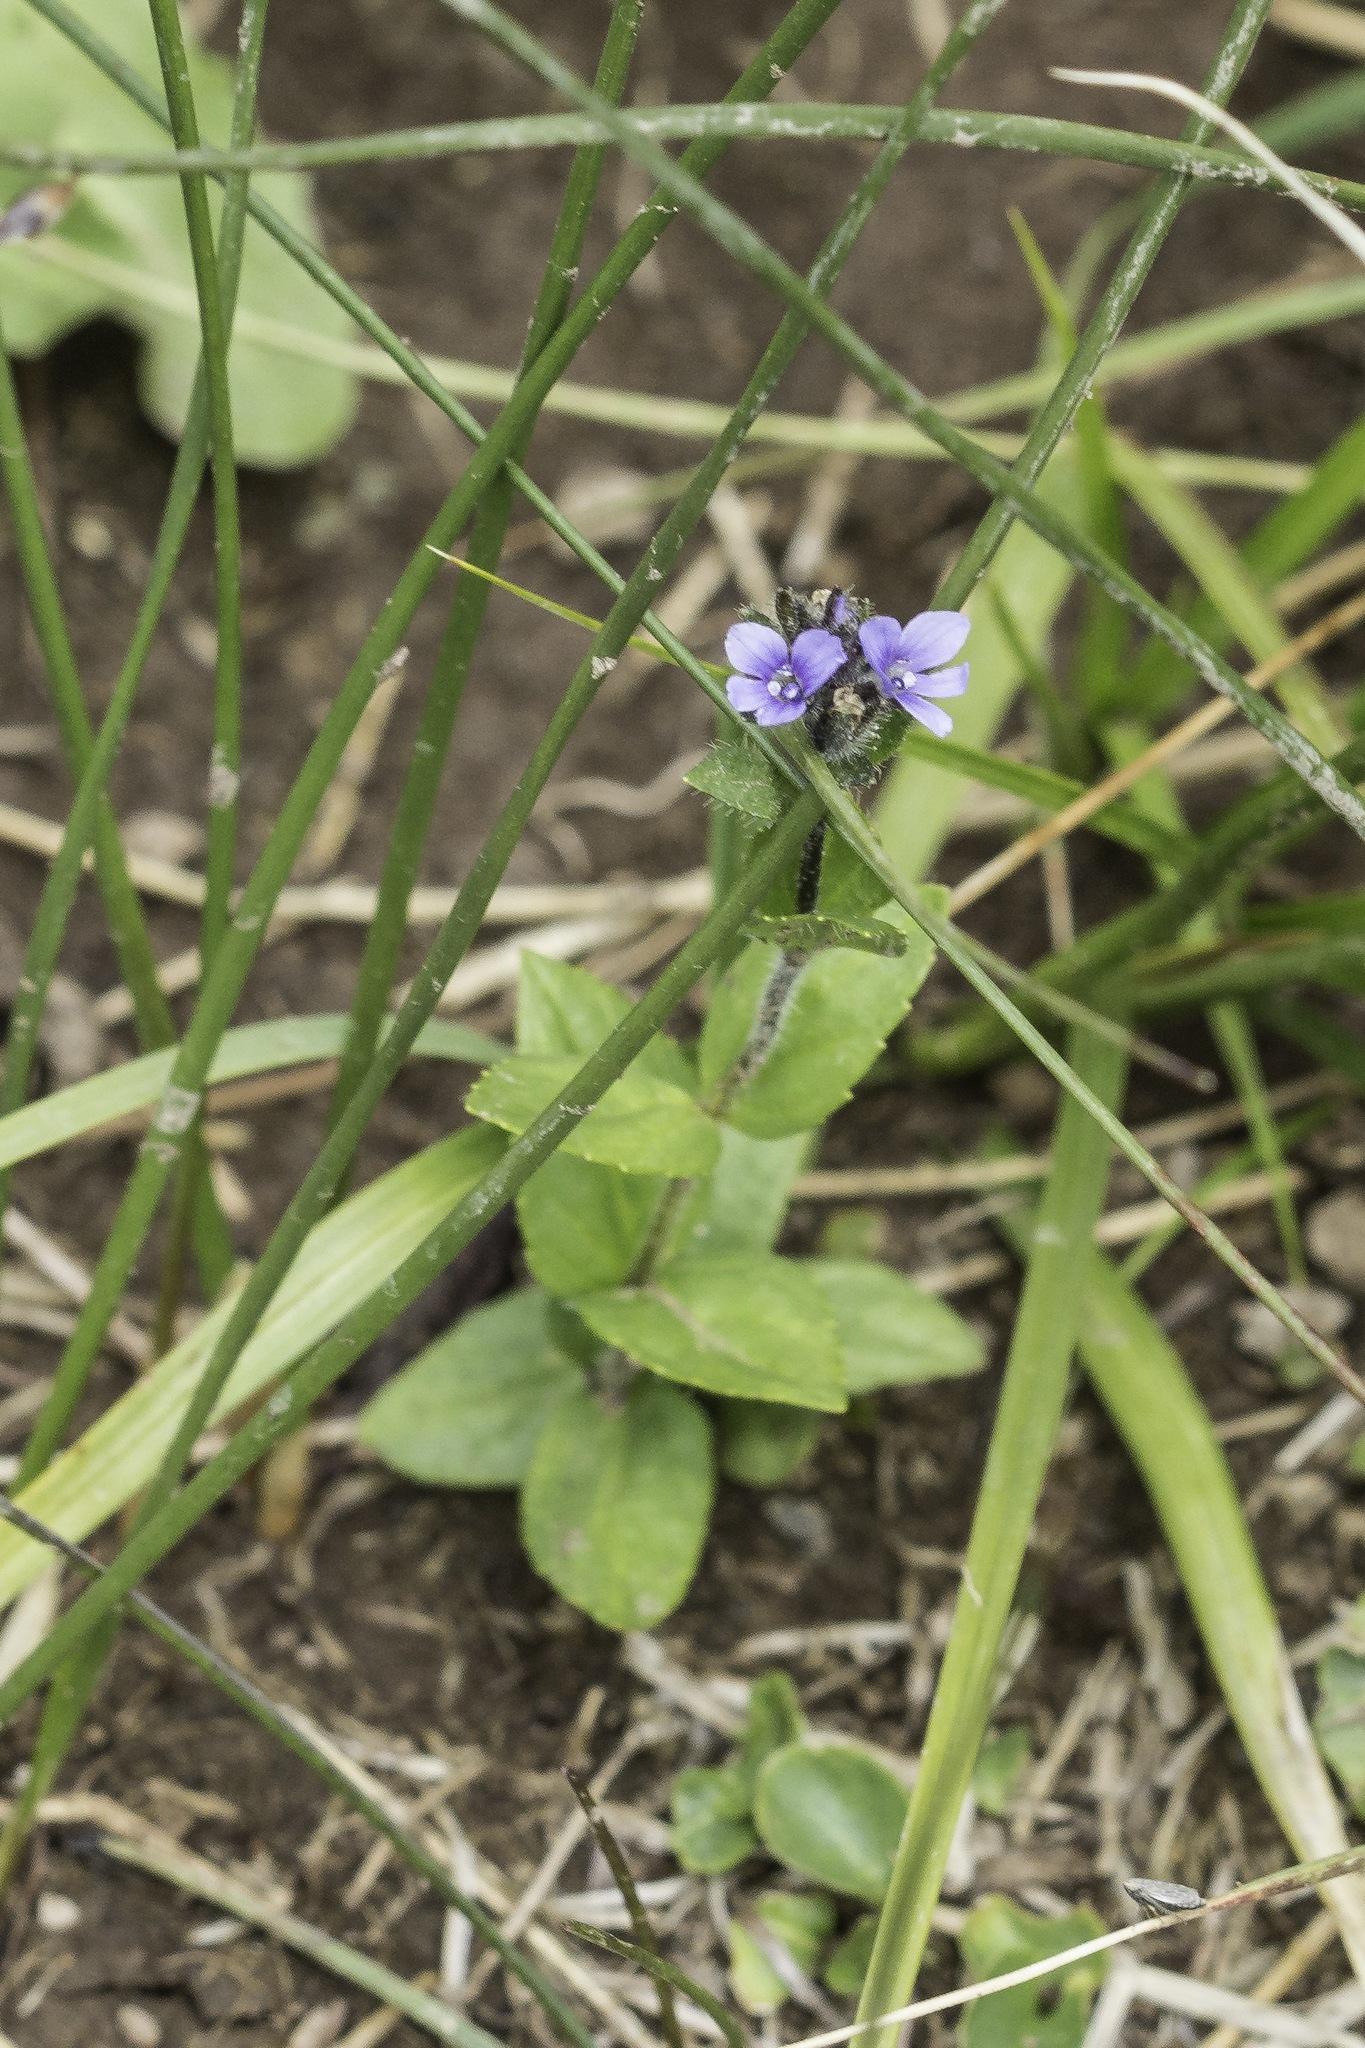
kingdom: Plantae
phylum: Tracheophyta
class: Magnoliopsida
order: Lamiales
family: Plantaginaceae
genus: Veronica
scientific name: Veronica wormskjoldii
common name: American alpine speedwell
